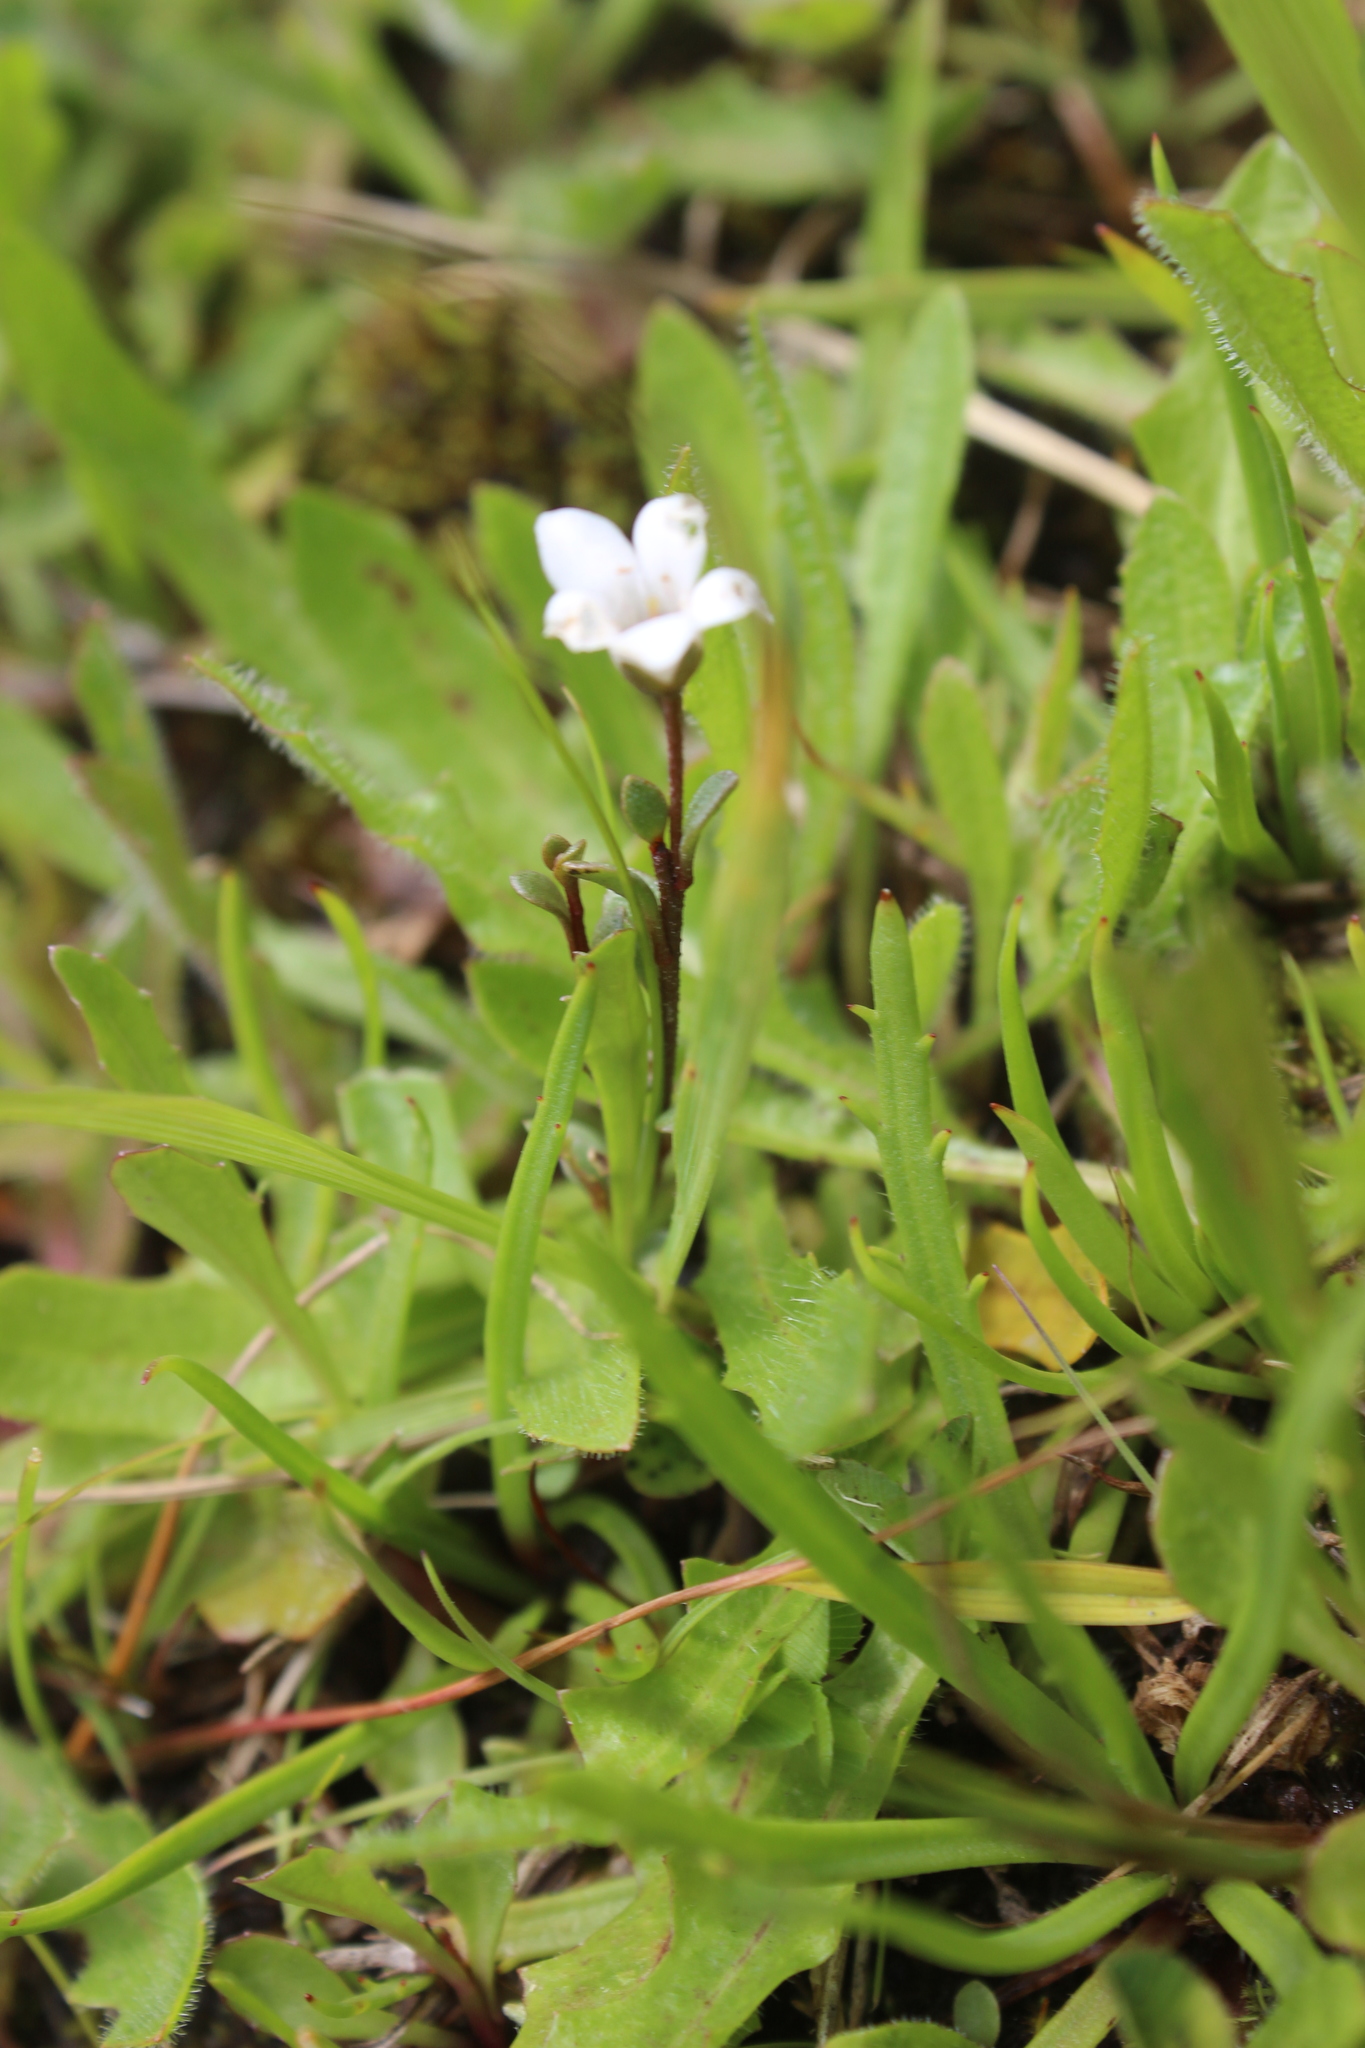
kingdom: Plantae
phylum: Tracheophyta
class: Magnoliopsida
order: Ericales
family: Primulaceae
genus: Samolus
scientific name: Samolus repens
